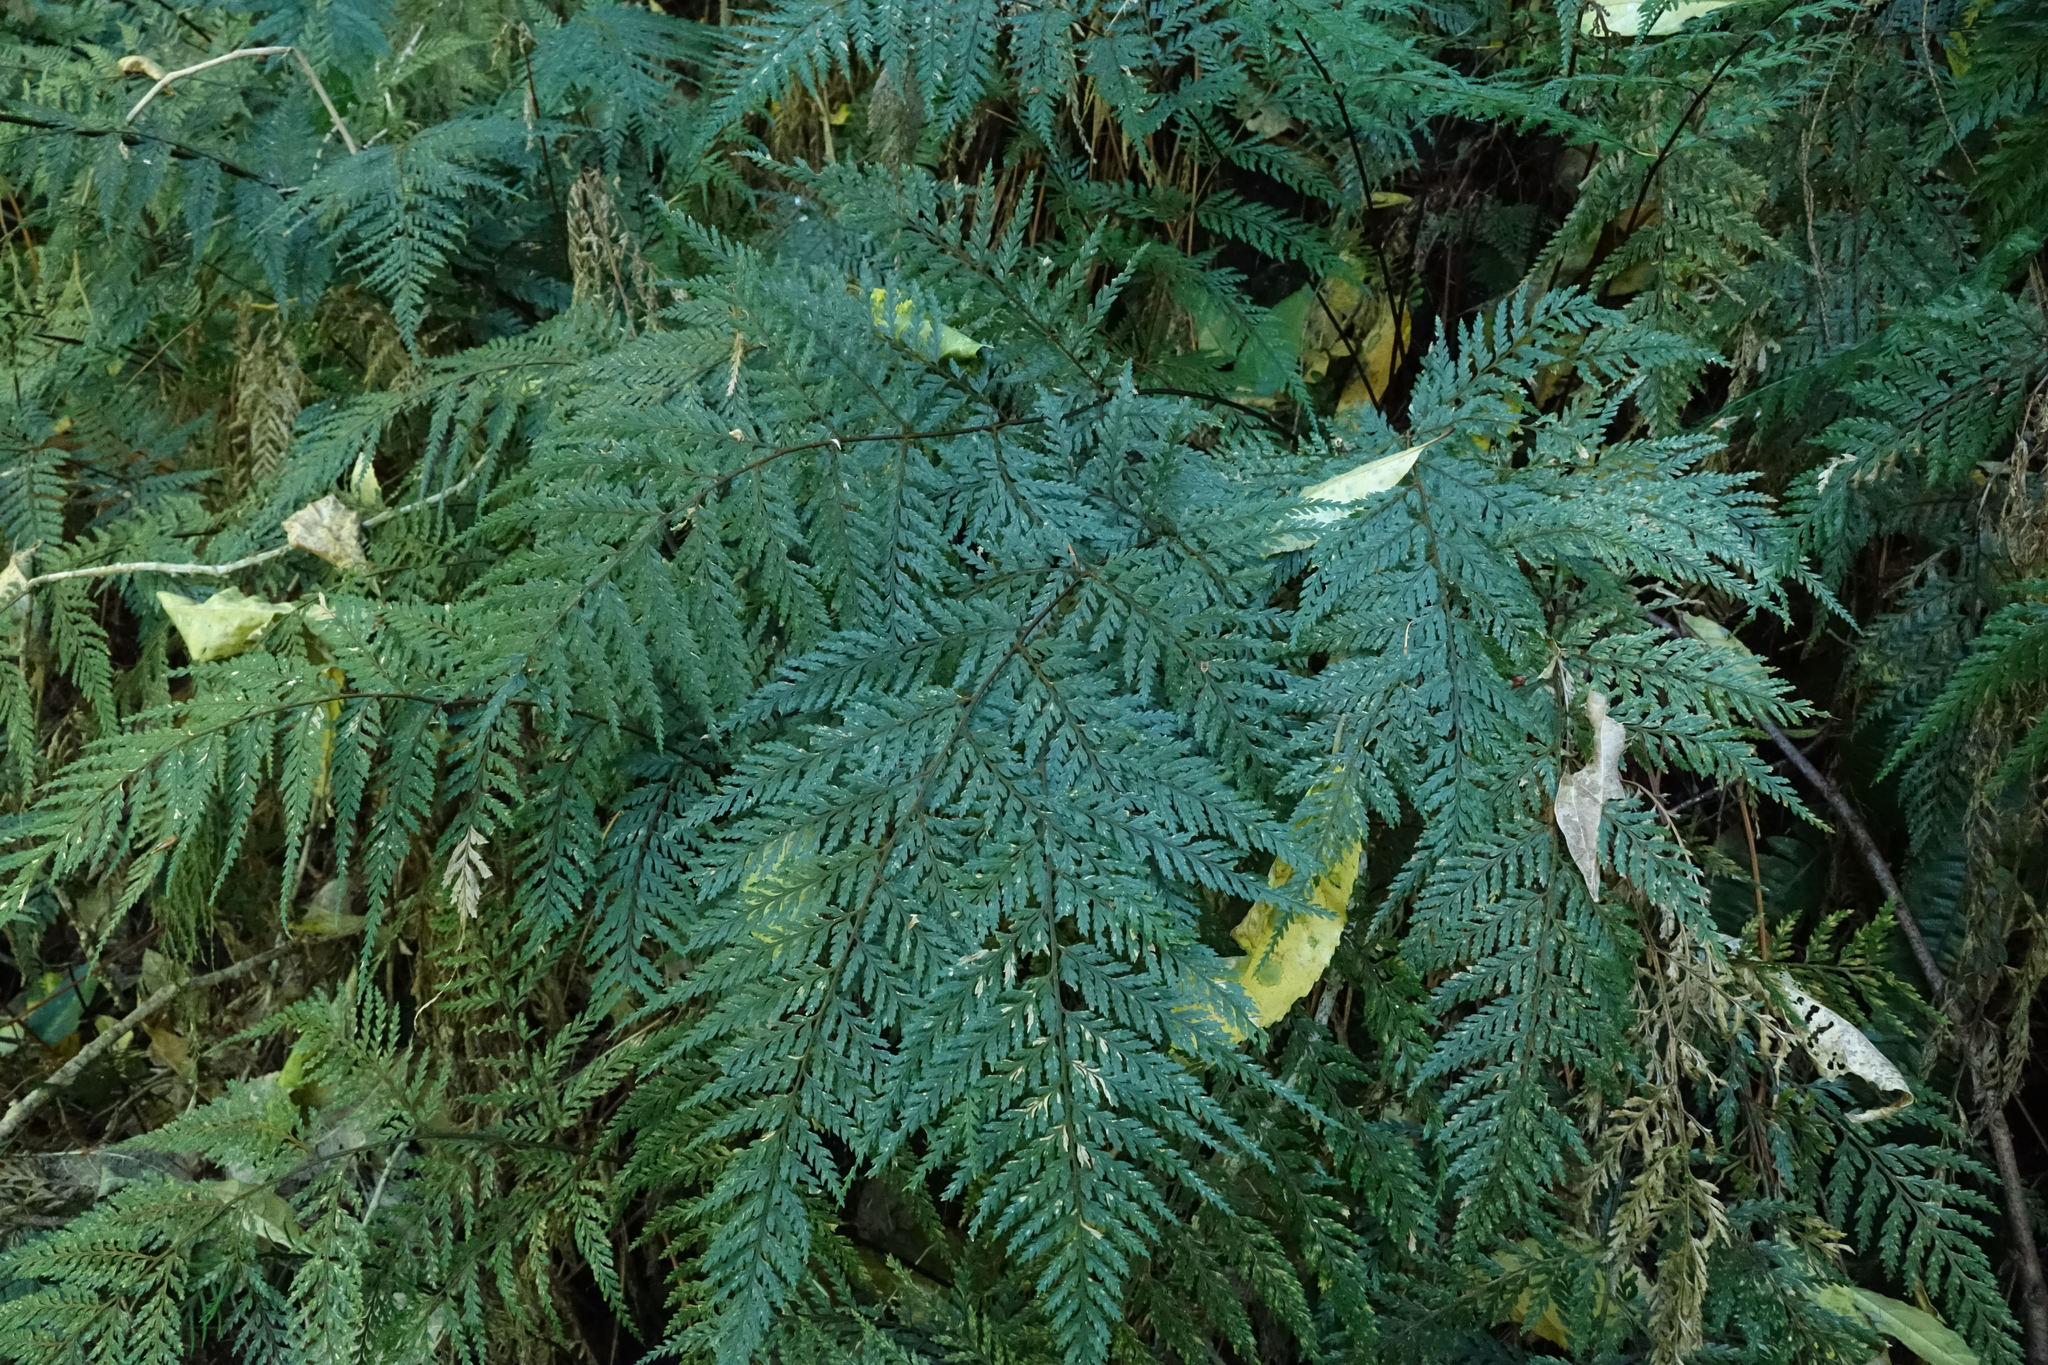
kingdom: Plantae
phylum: Tracheophyta
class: Polypodiopsida
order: Polypodiales
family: Dryopteridaceae
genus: Parapolystichum
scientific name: Parapolystichum glabellum
